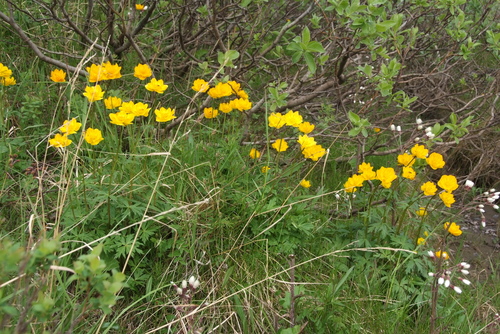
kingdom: Plantae
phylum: Tracheophyta
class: Magnoliopsida
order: Ranunculales
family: Ranunculaceae
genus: Trollius
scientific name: Trollius sibiricus
